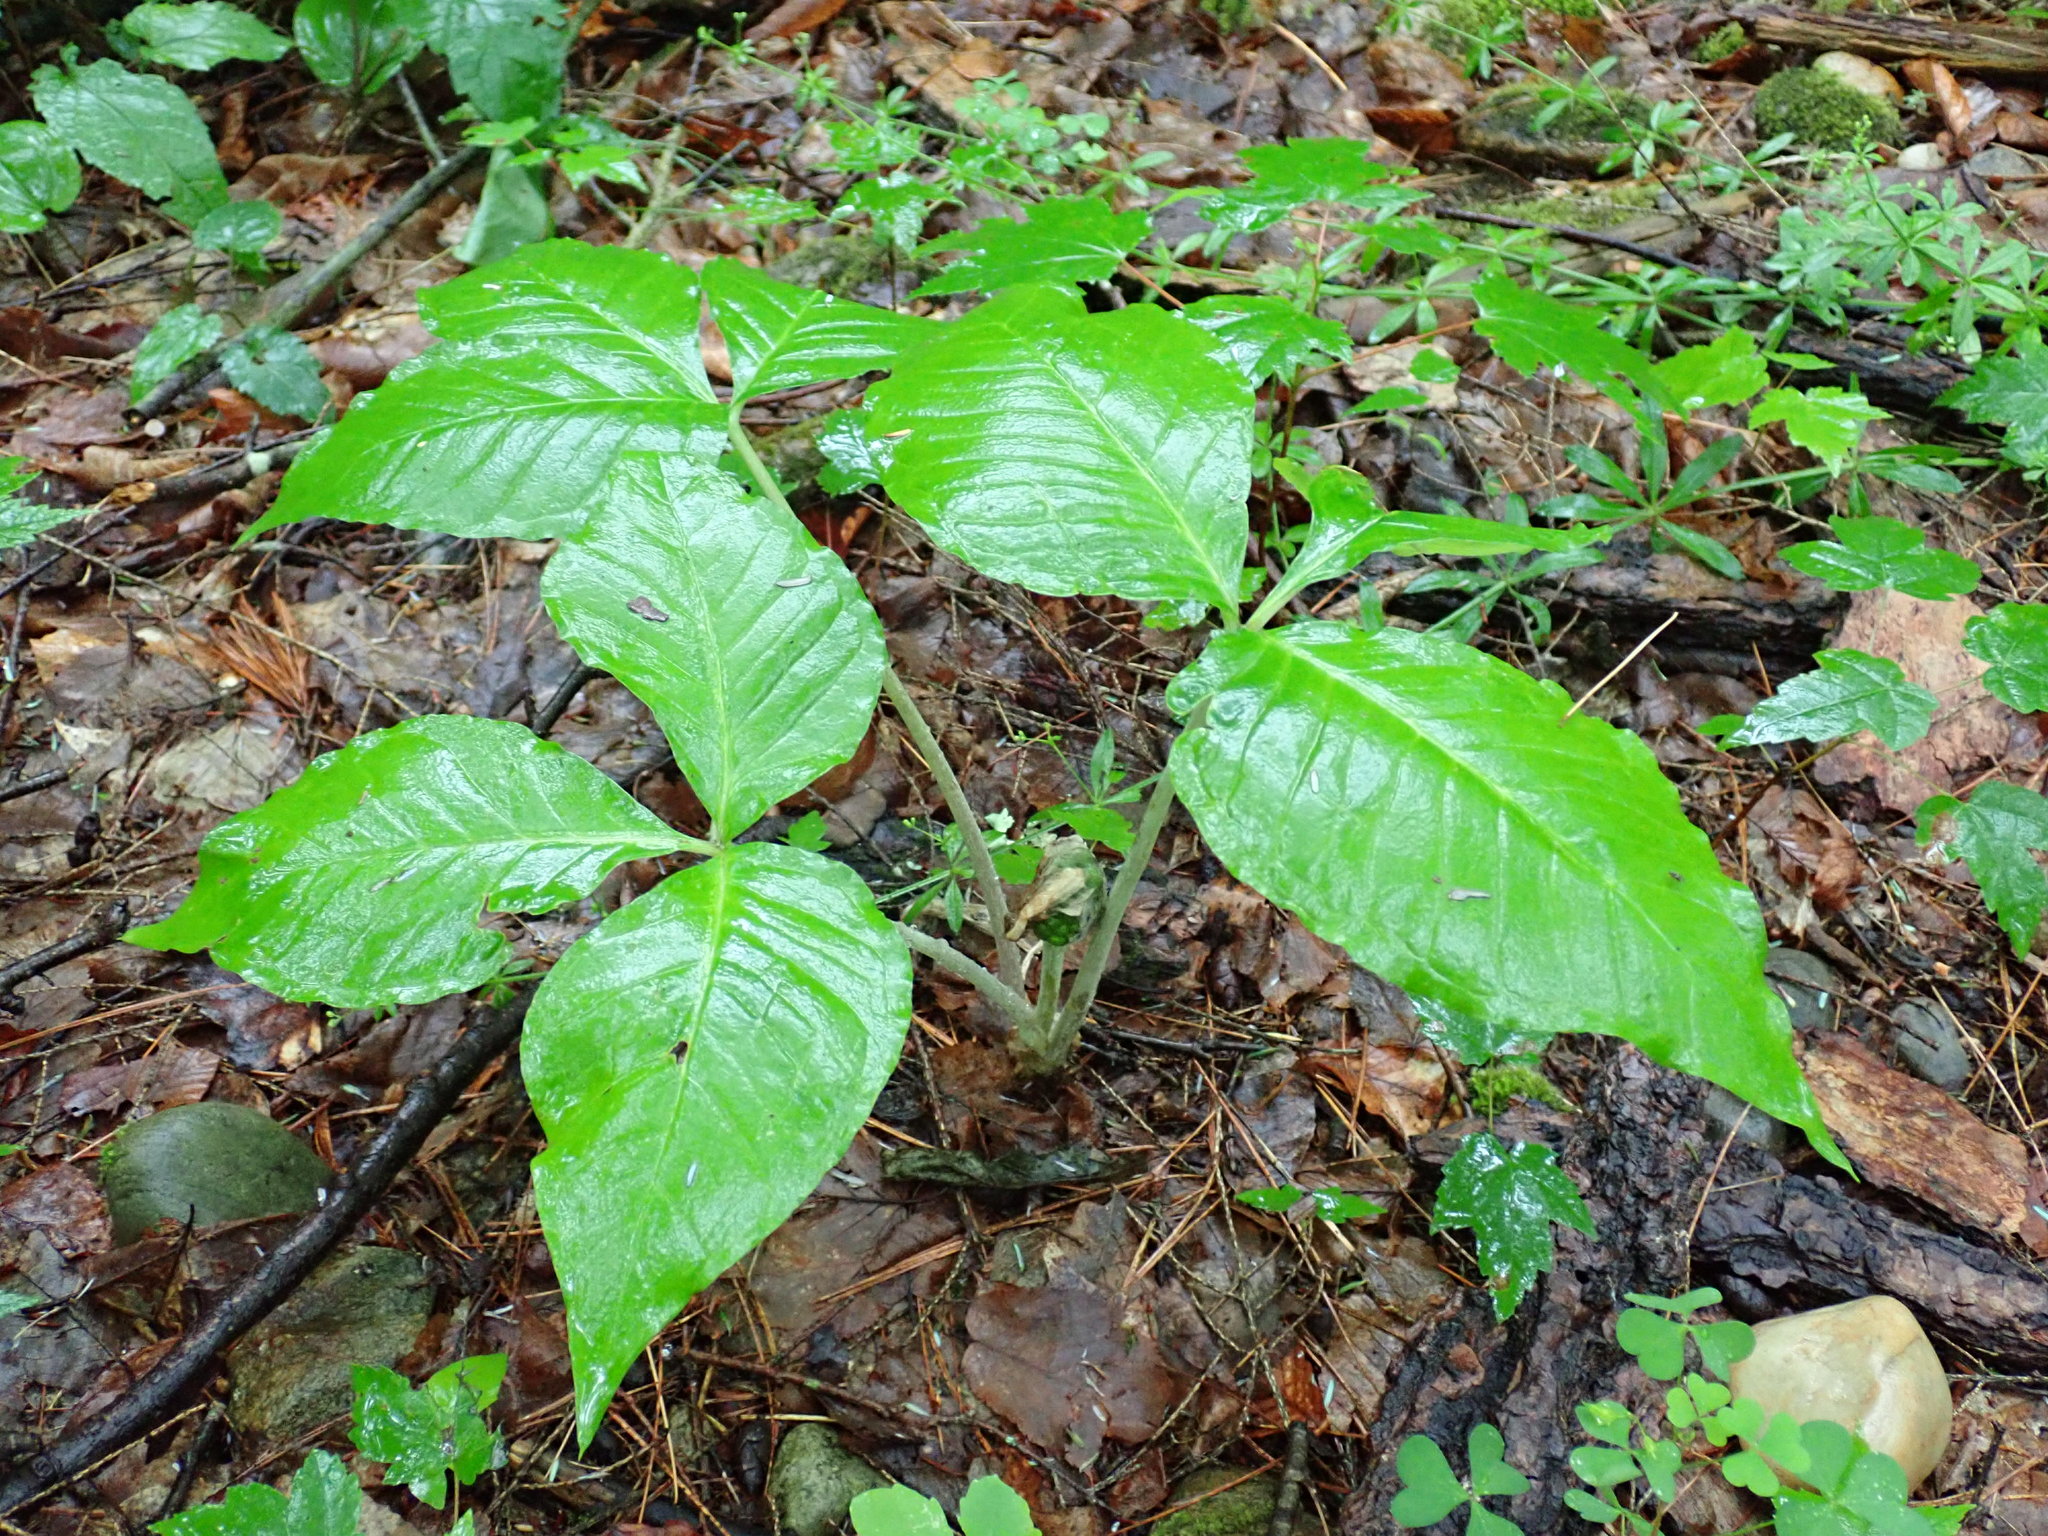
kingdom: Plantae
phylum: Tracheophyta
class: Liliopsida
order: Alismatales
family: Araceae
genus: Arisaema
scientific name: Arisaema triphyllum
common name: Jack-in-the-pulpit
